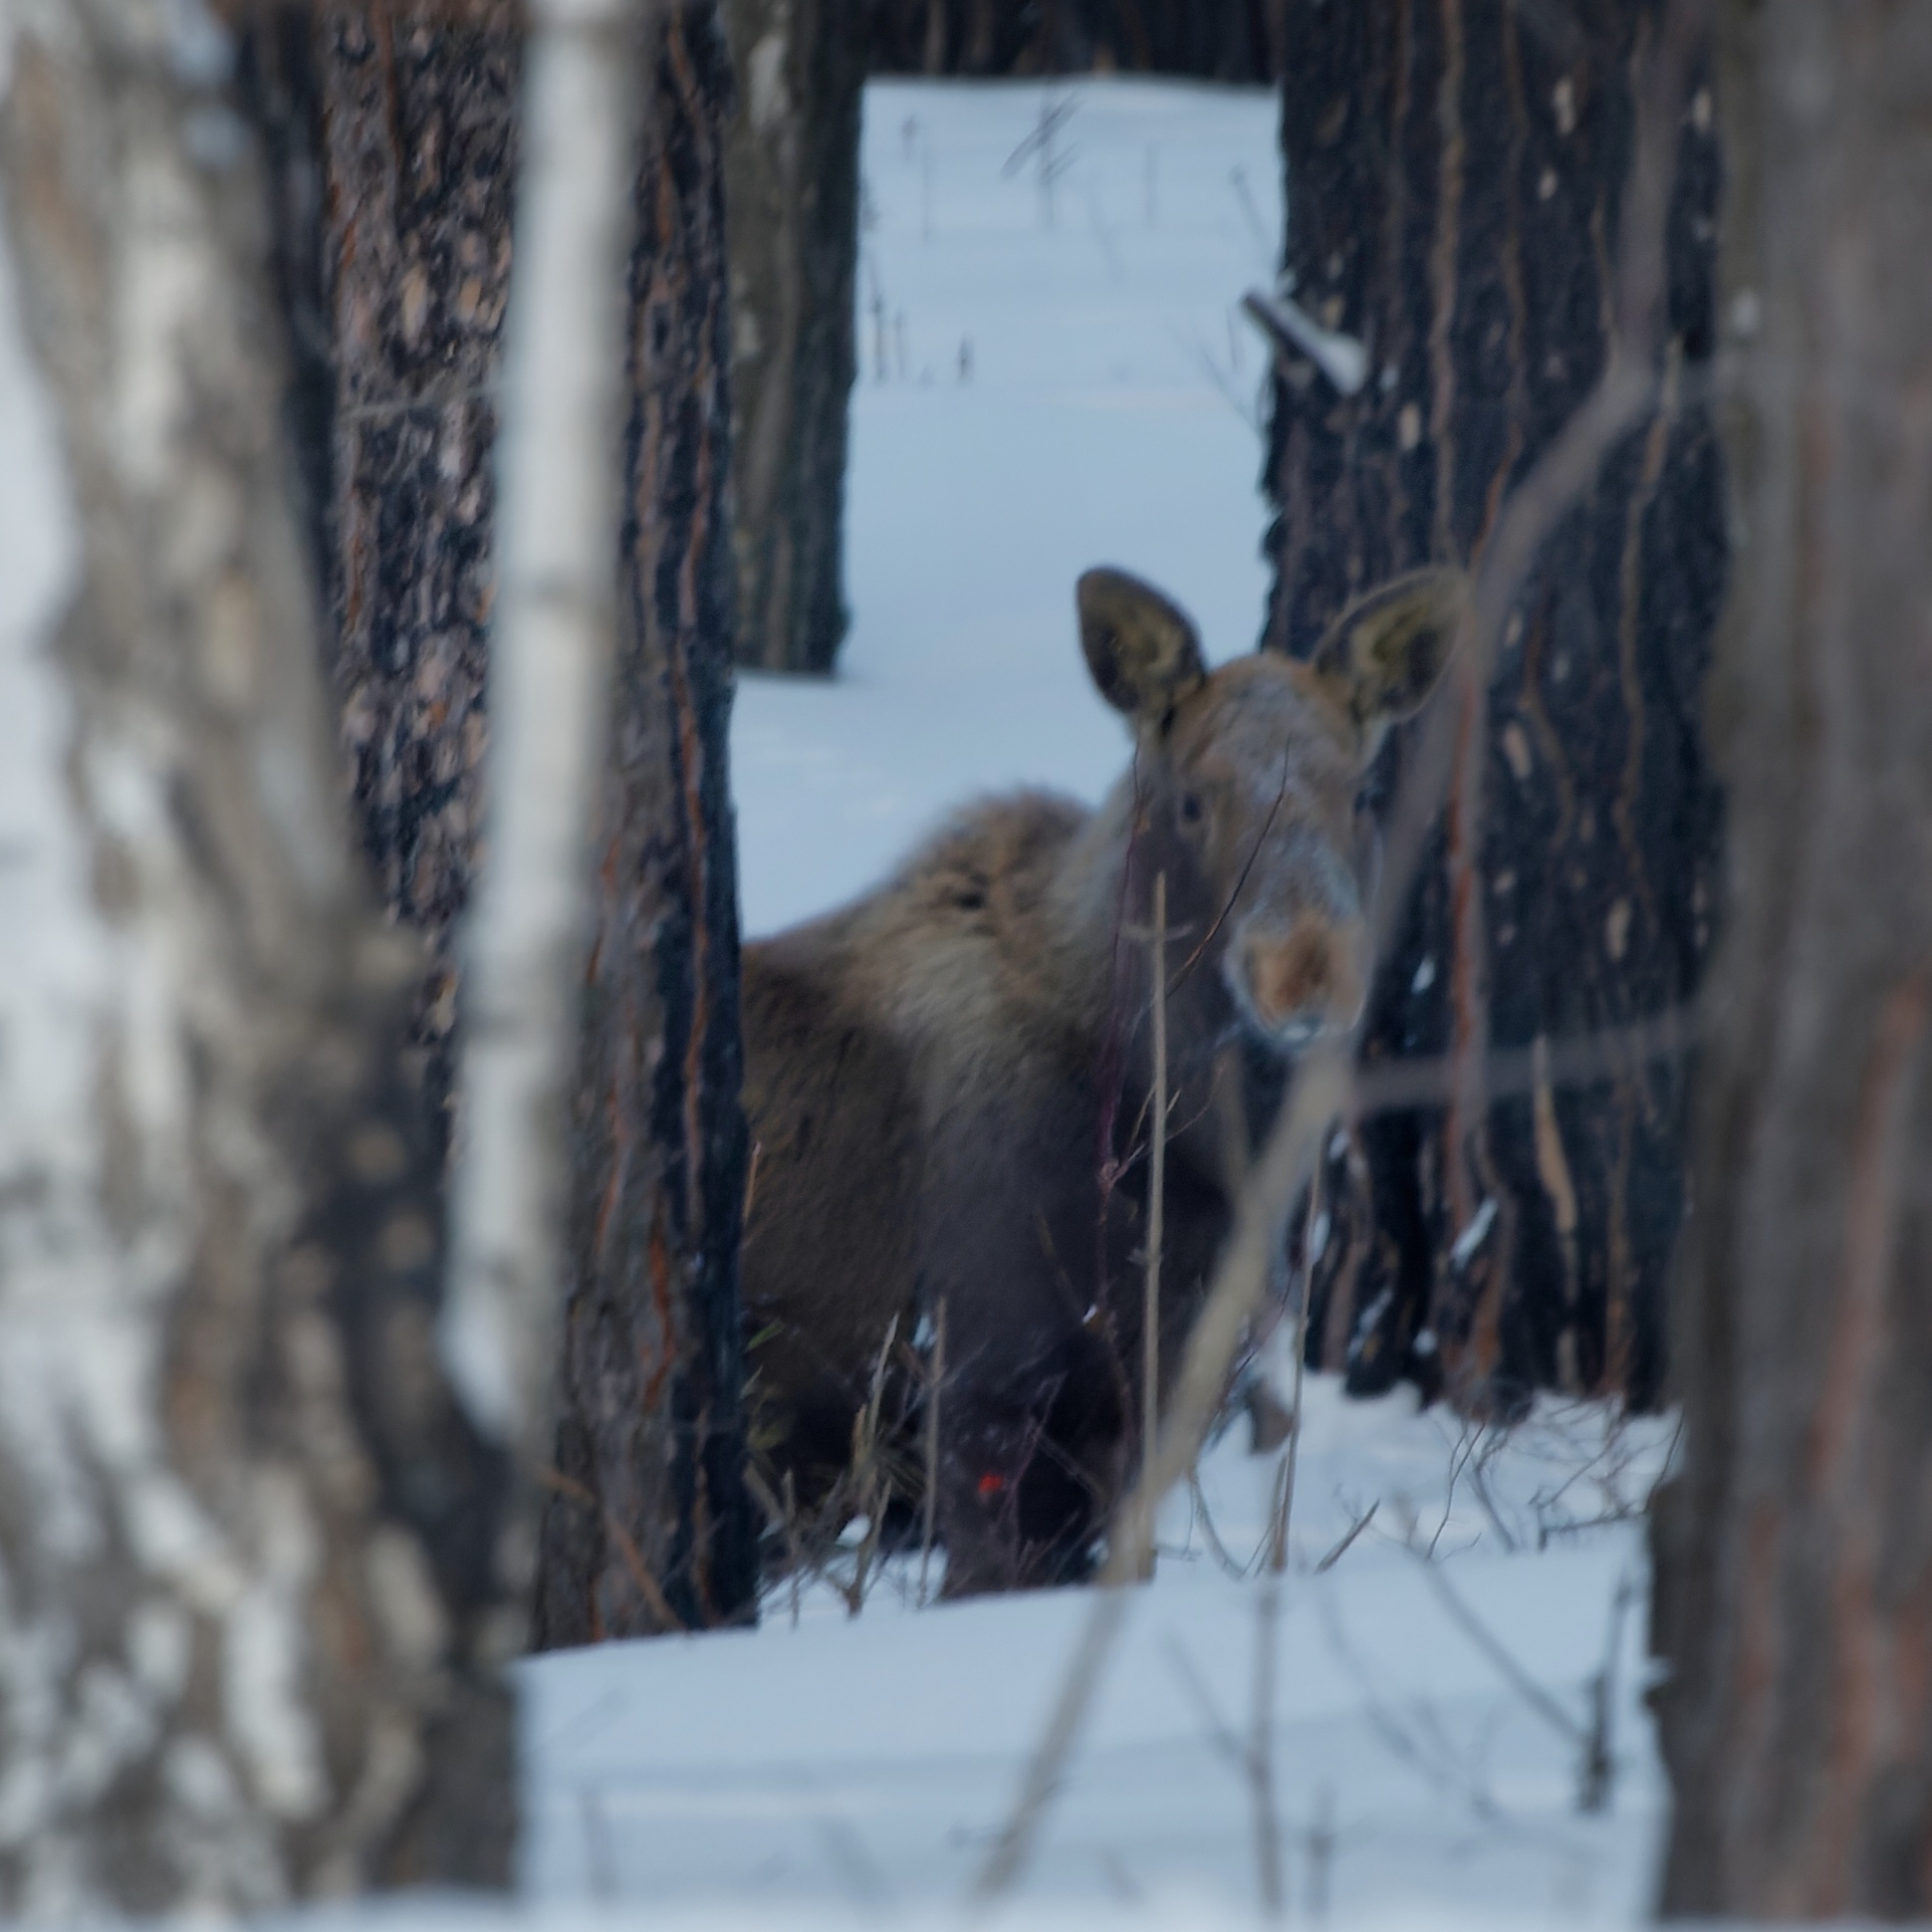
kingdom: Animalia
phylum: Chordata
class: Mammalia
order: Artiodactyla
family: Cervidae
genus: Alces
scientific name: Alces alces
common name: Moose
